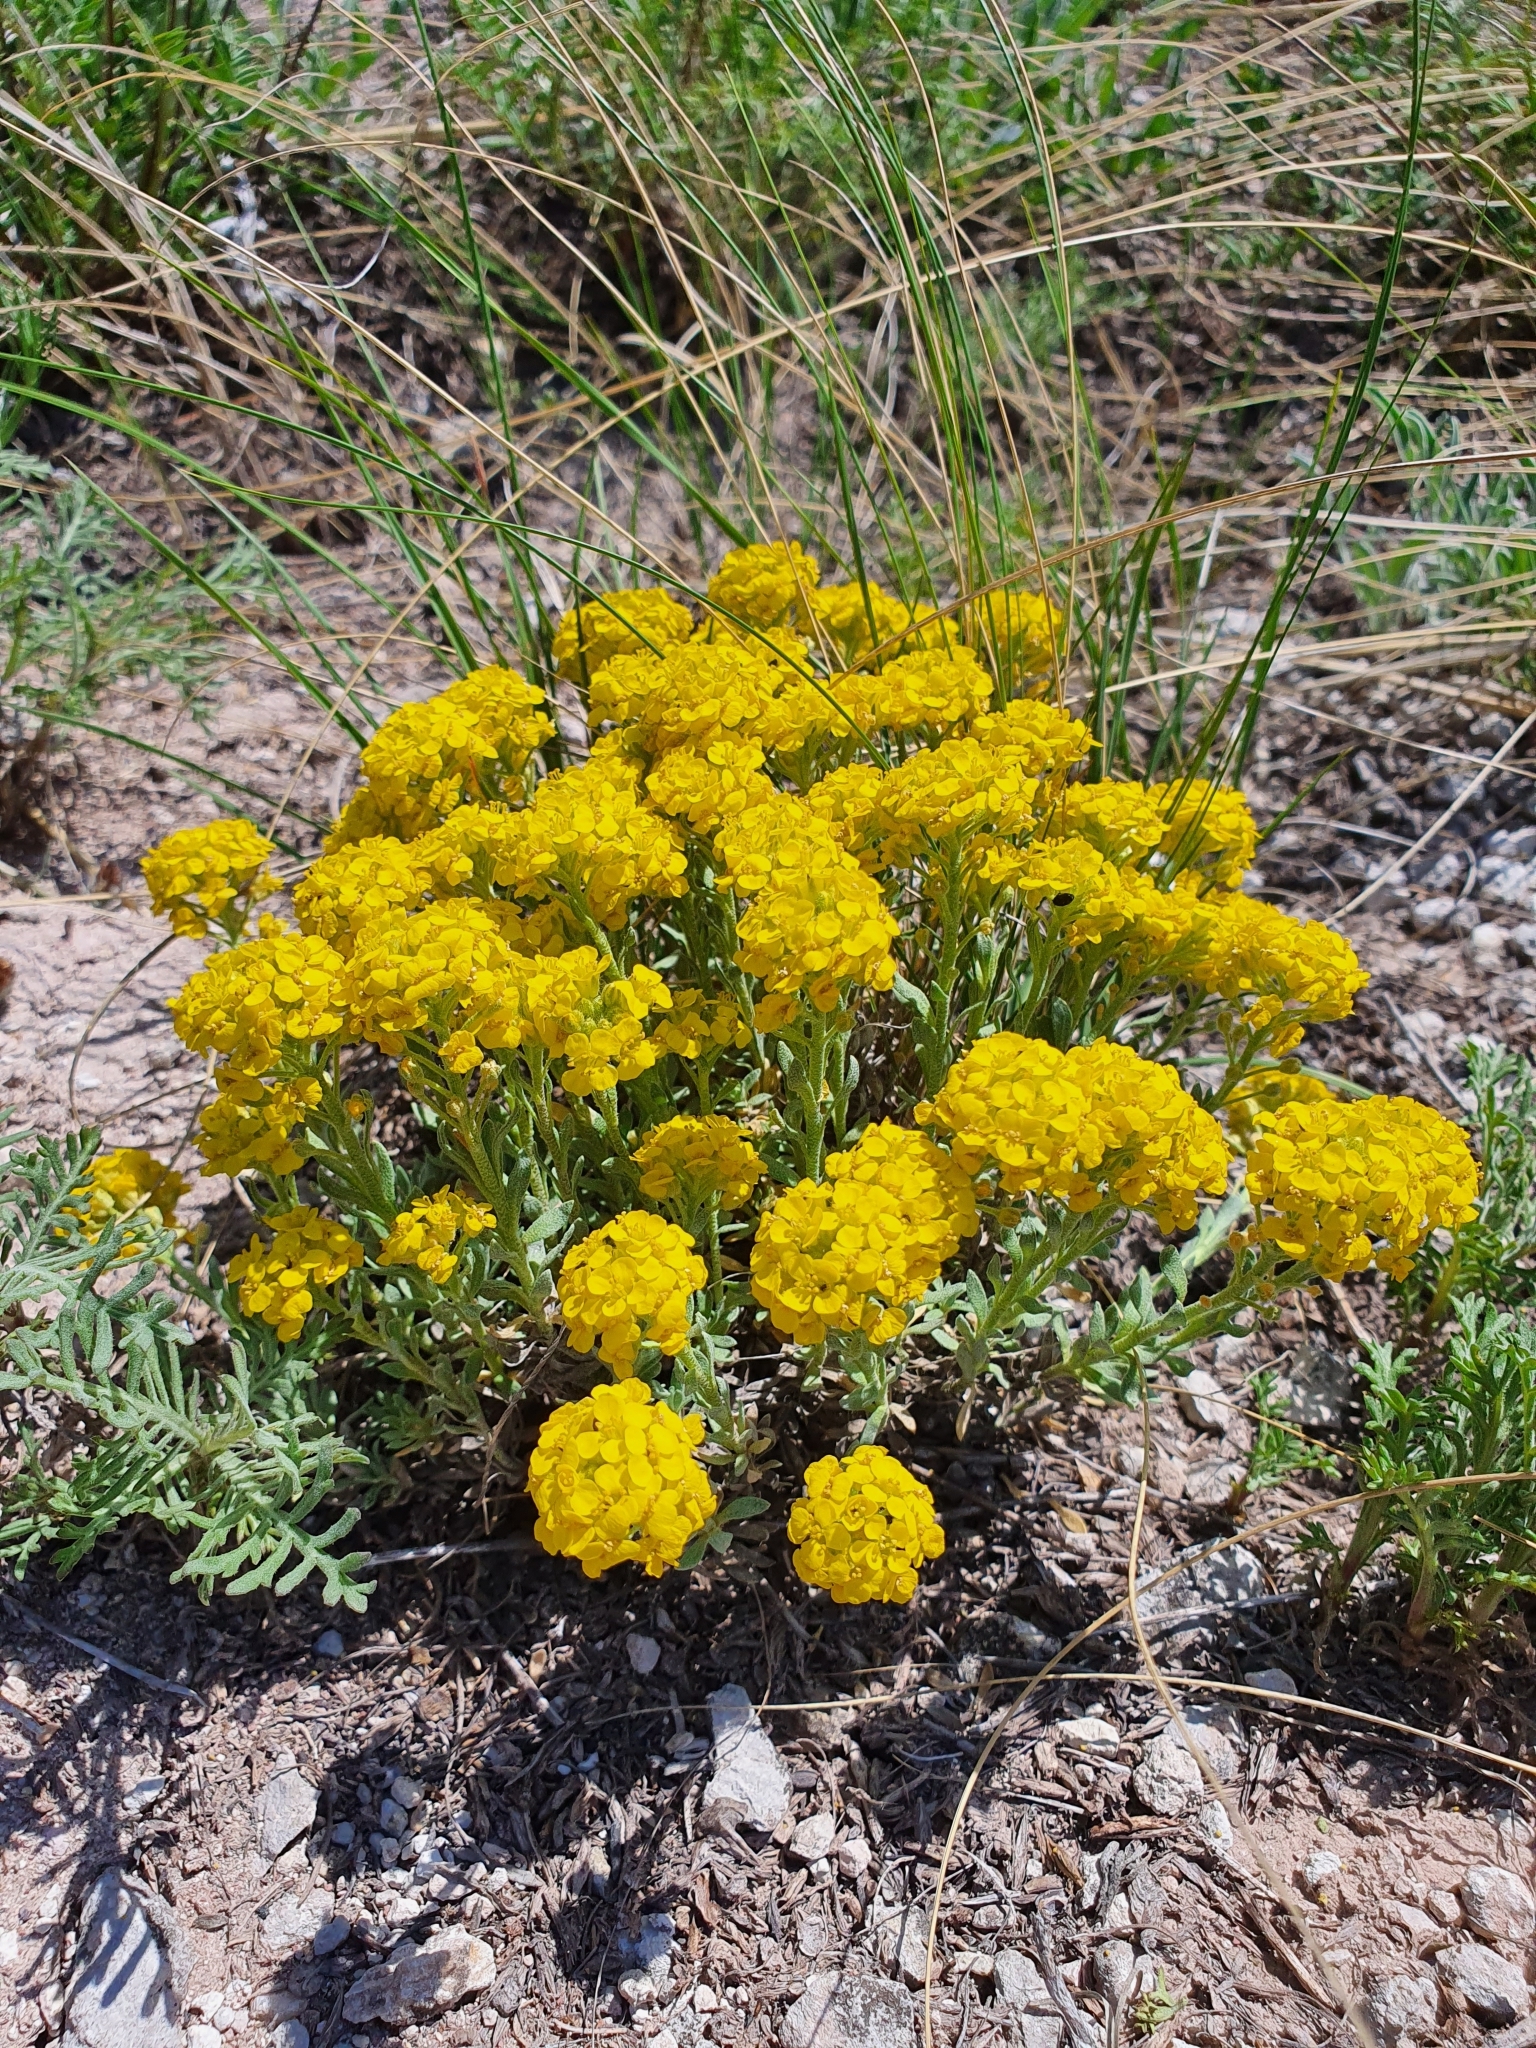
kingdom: Plantae
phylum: Tracheophyta
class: Magnoliopsida
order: Brassicales
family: Brassicaceae
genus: Alyssum
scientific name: Alyssum lenense
